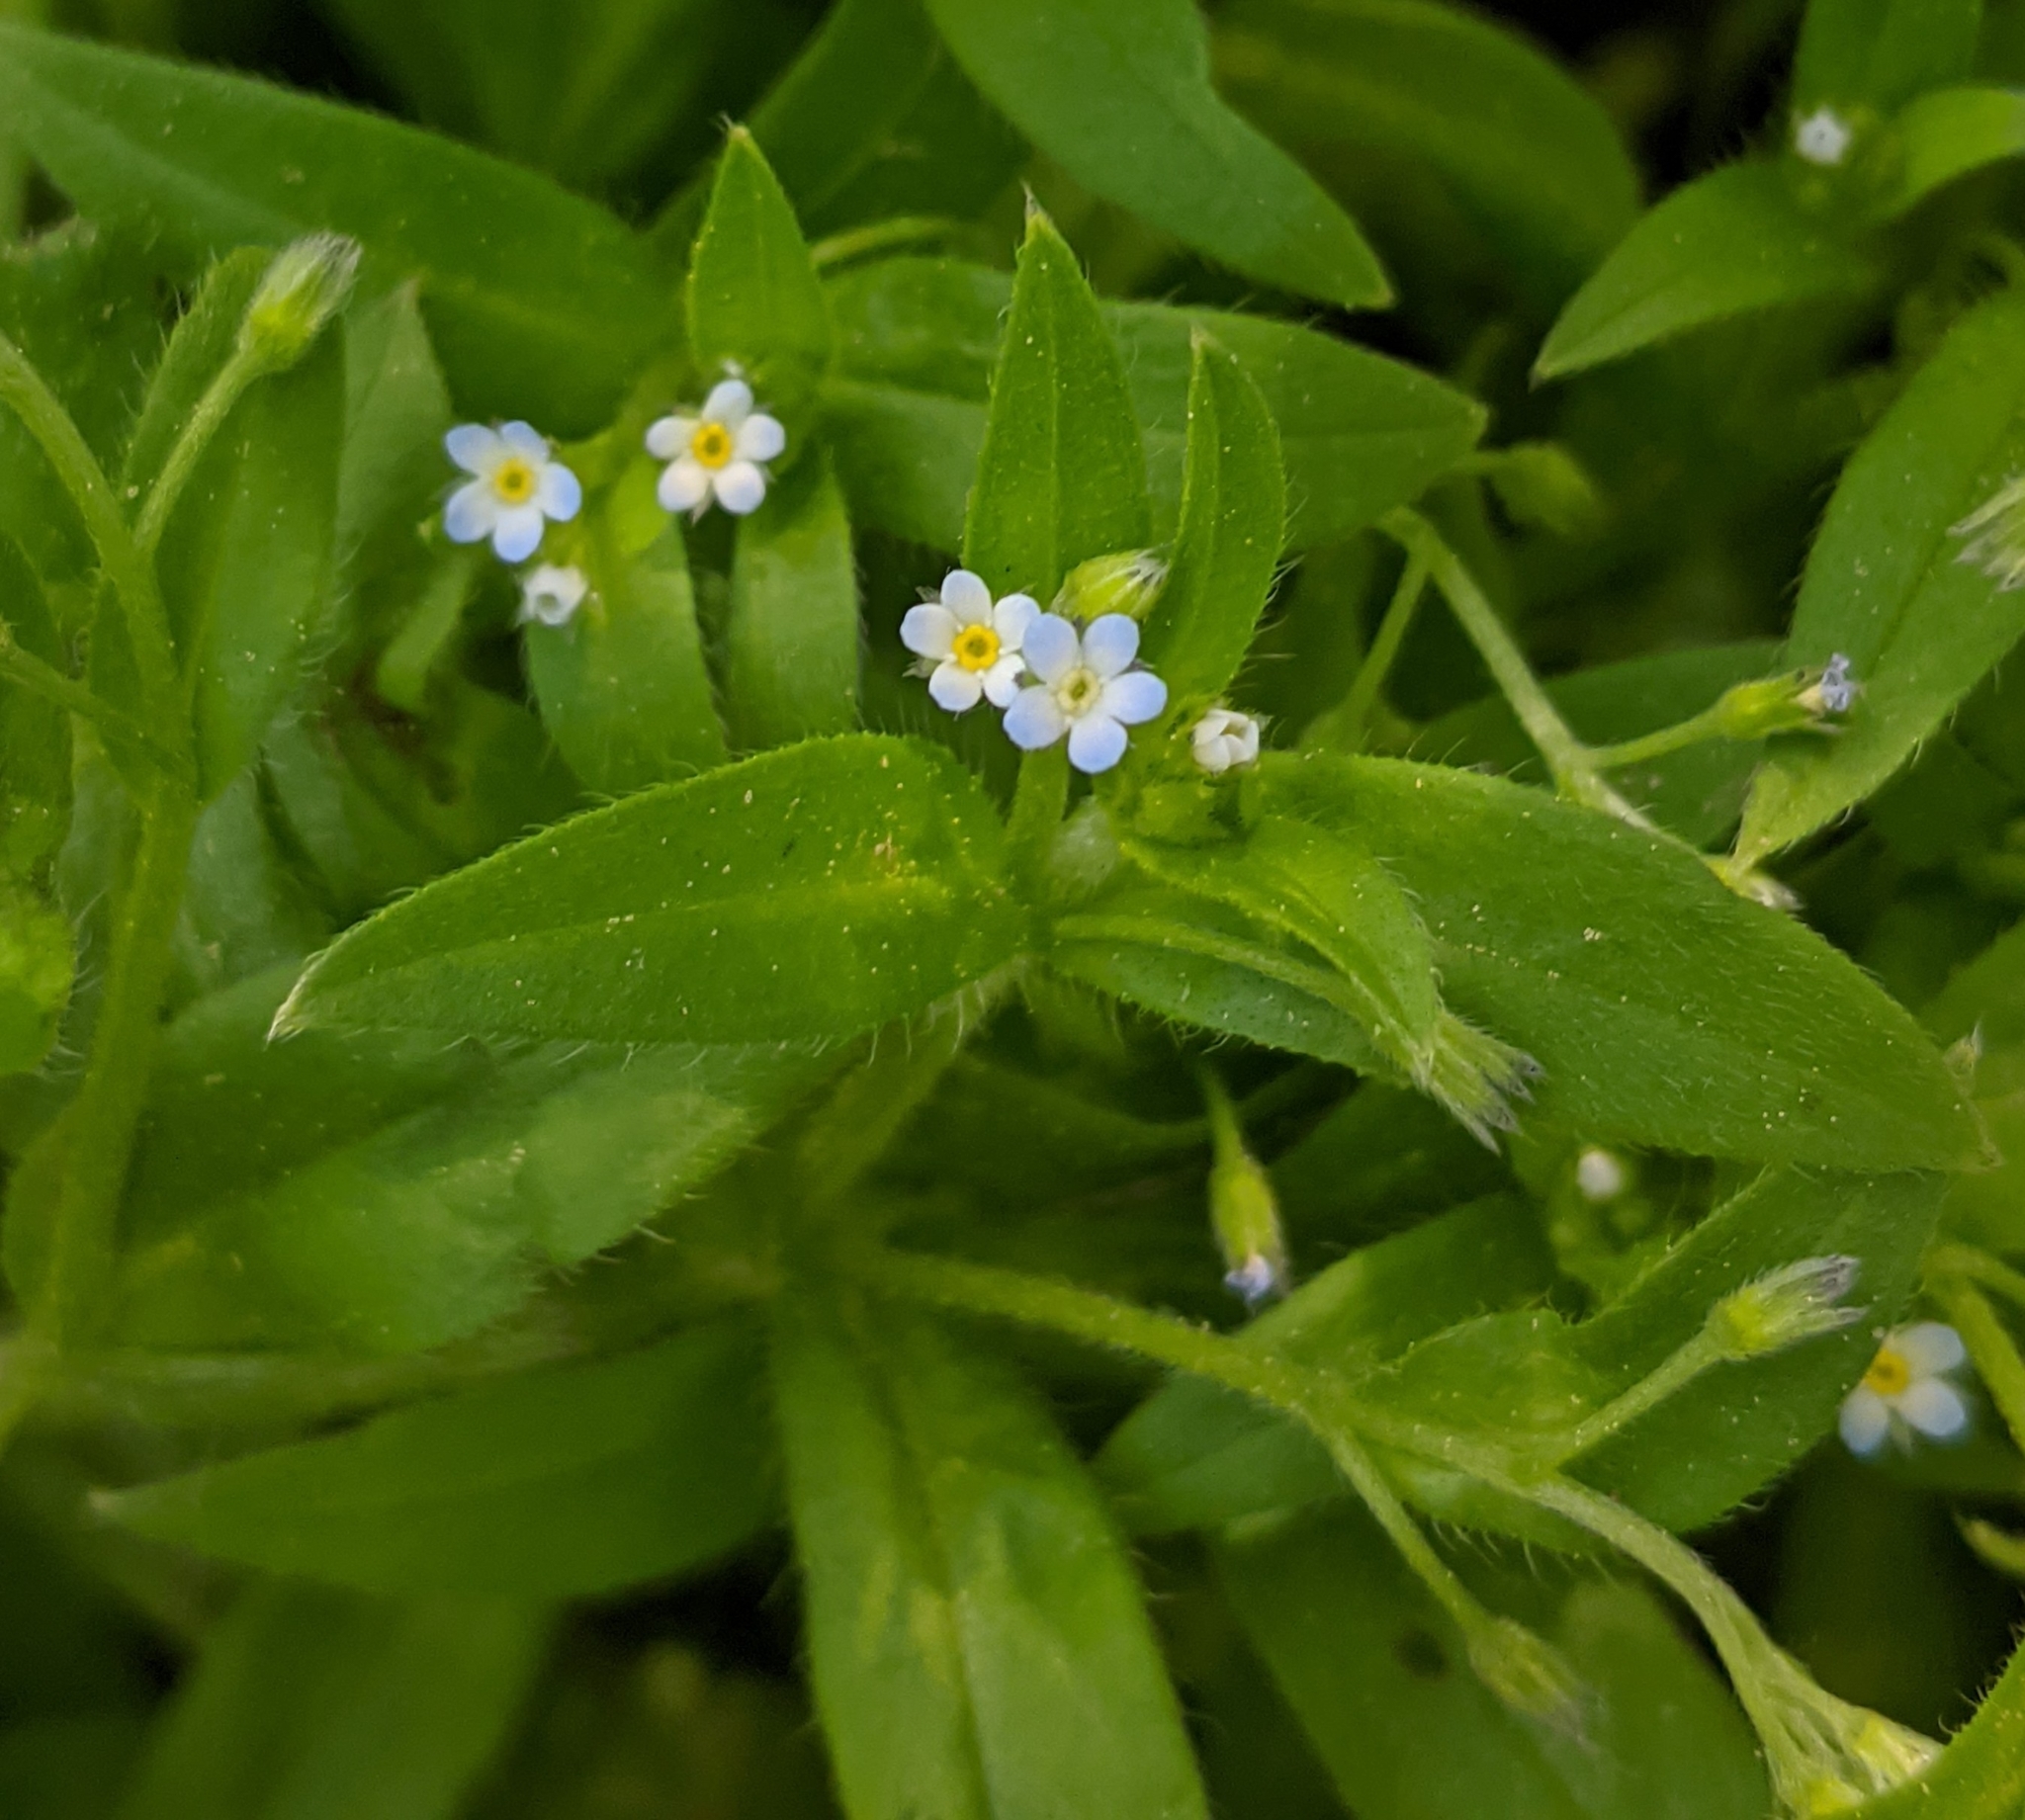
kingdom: Plantae
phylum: Tracheophyta
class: Magnoliopsida
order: Boraginales
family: Boraginaceae
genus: Myosotis
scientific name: Myosotis sparsiflora
